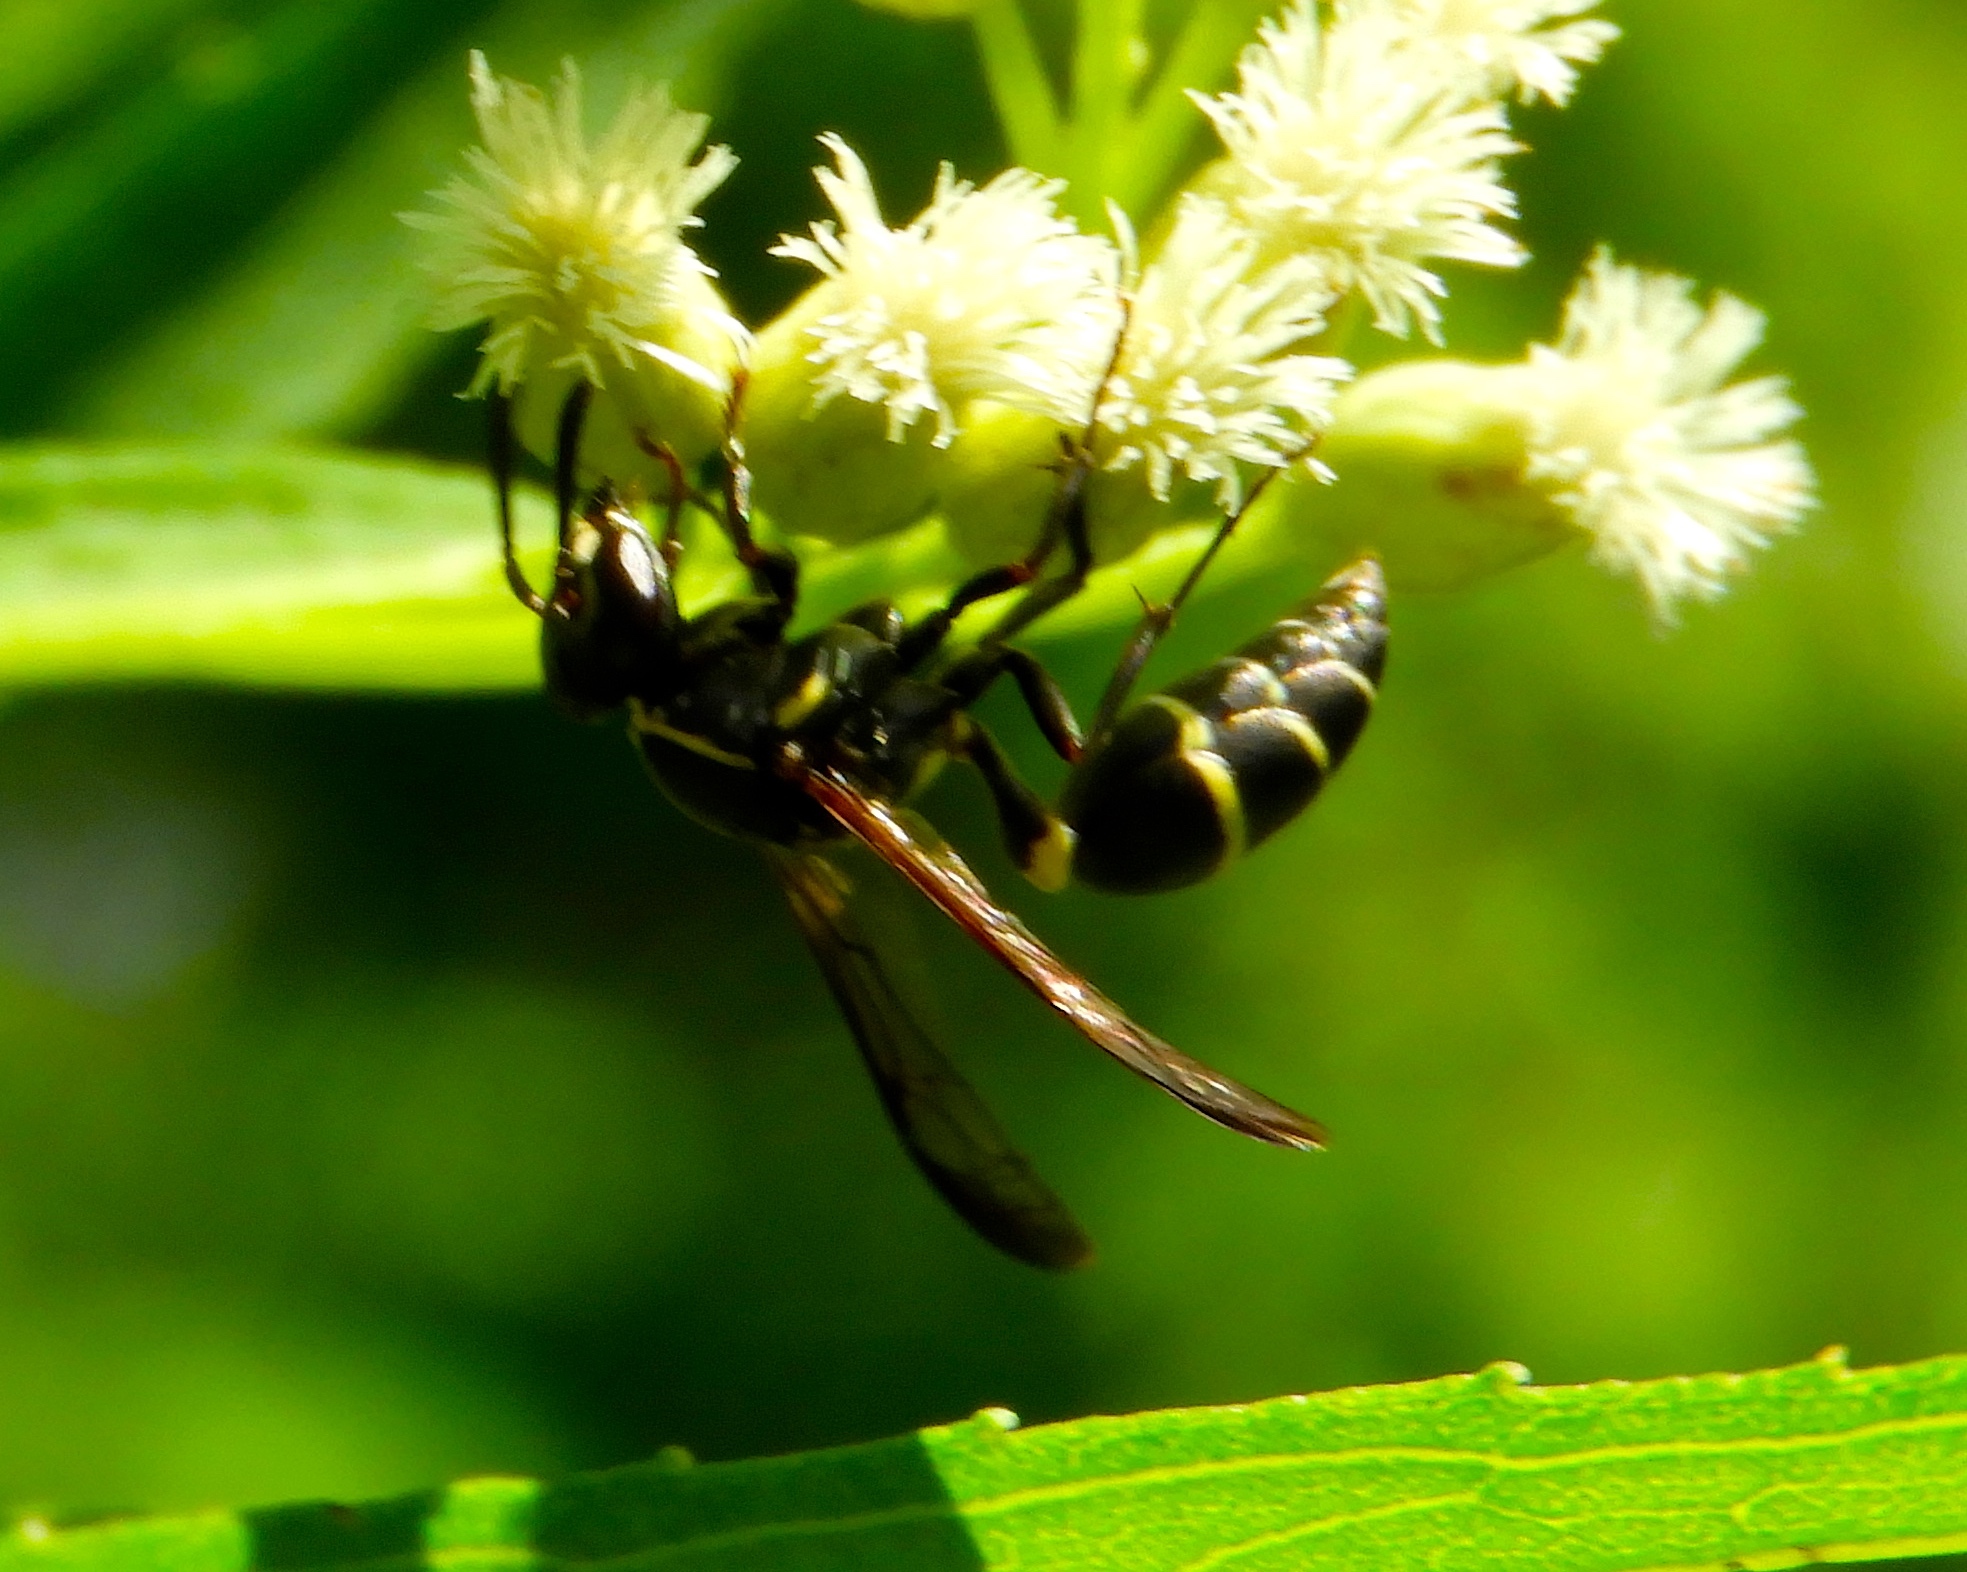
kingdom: Animalia
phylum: Arthropoda
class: Insecta
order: Hymenoptera
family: Vespidae
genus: Myrapetra
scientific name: Myrapetra
